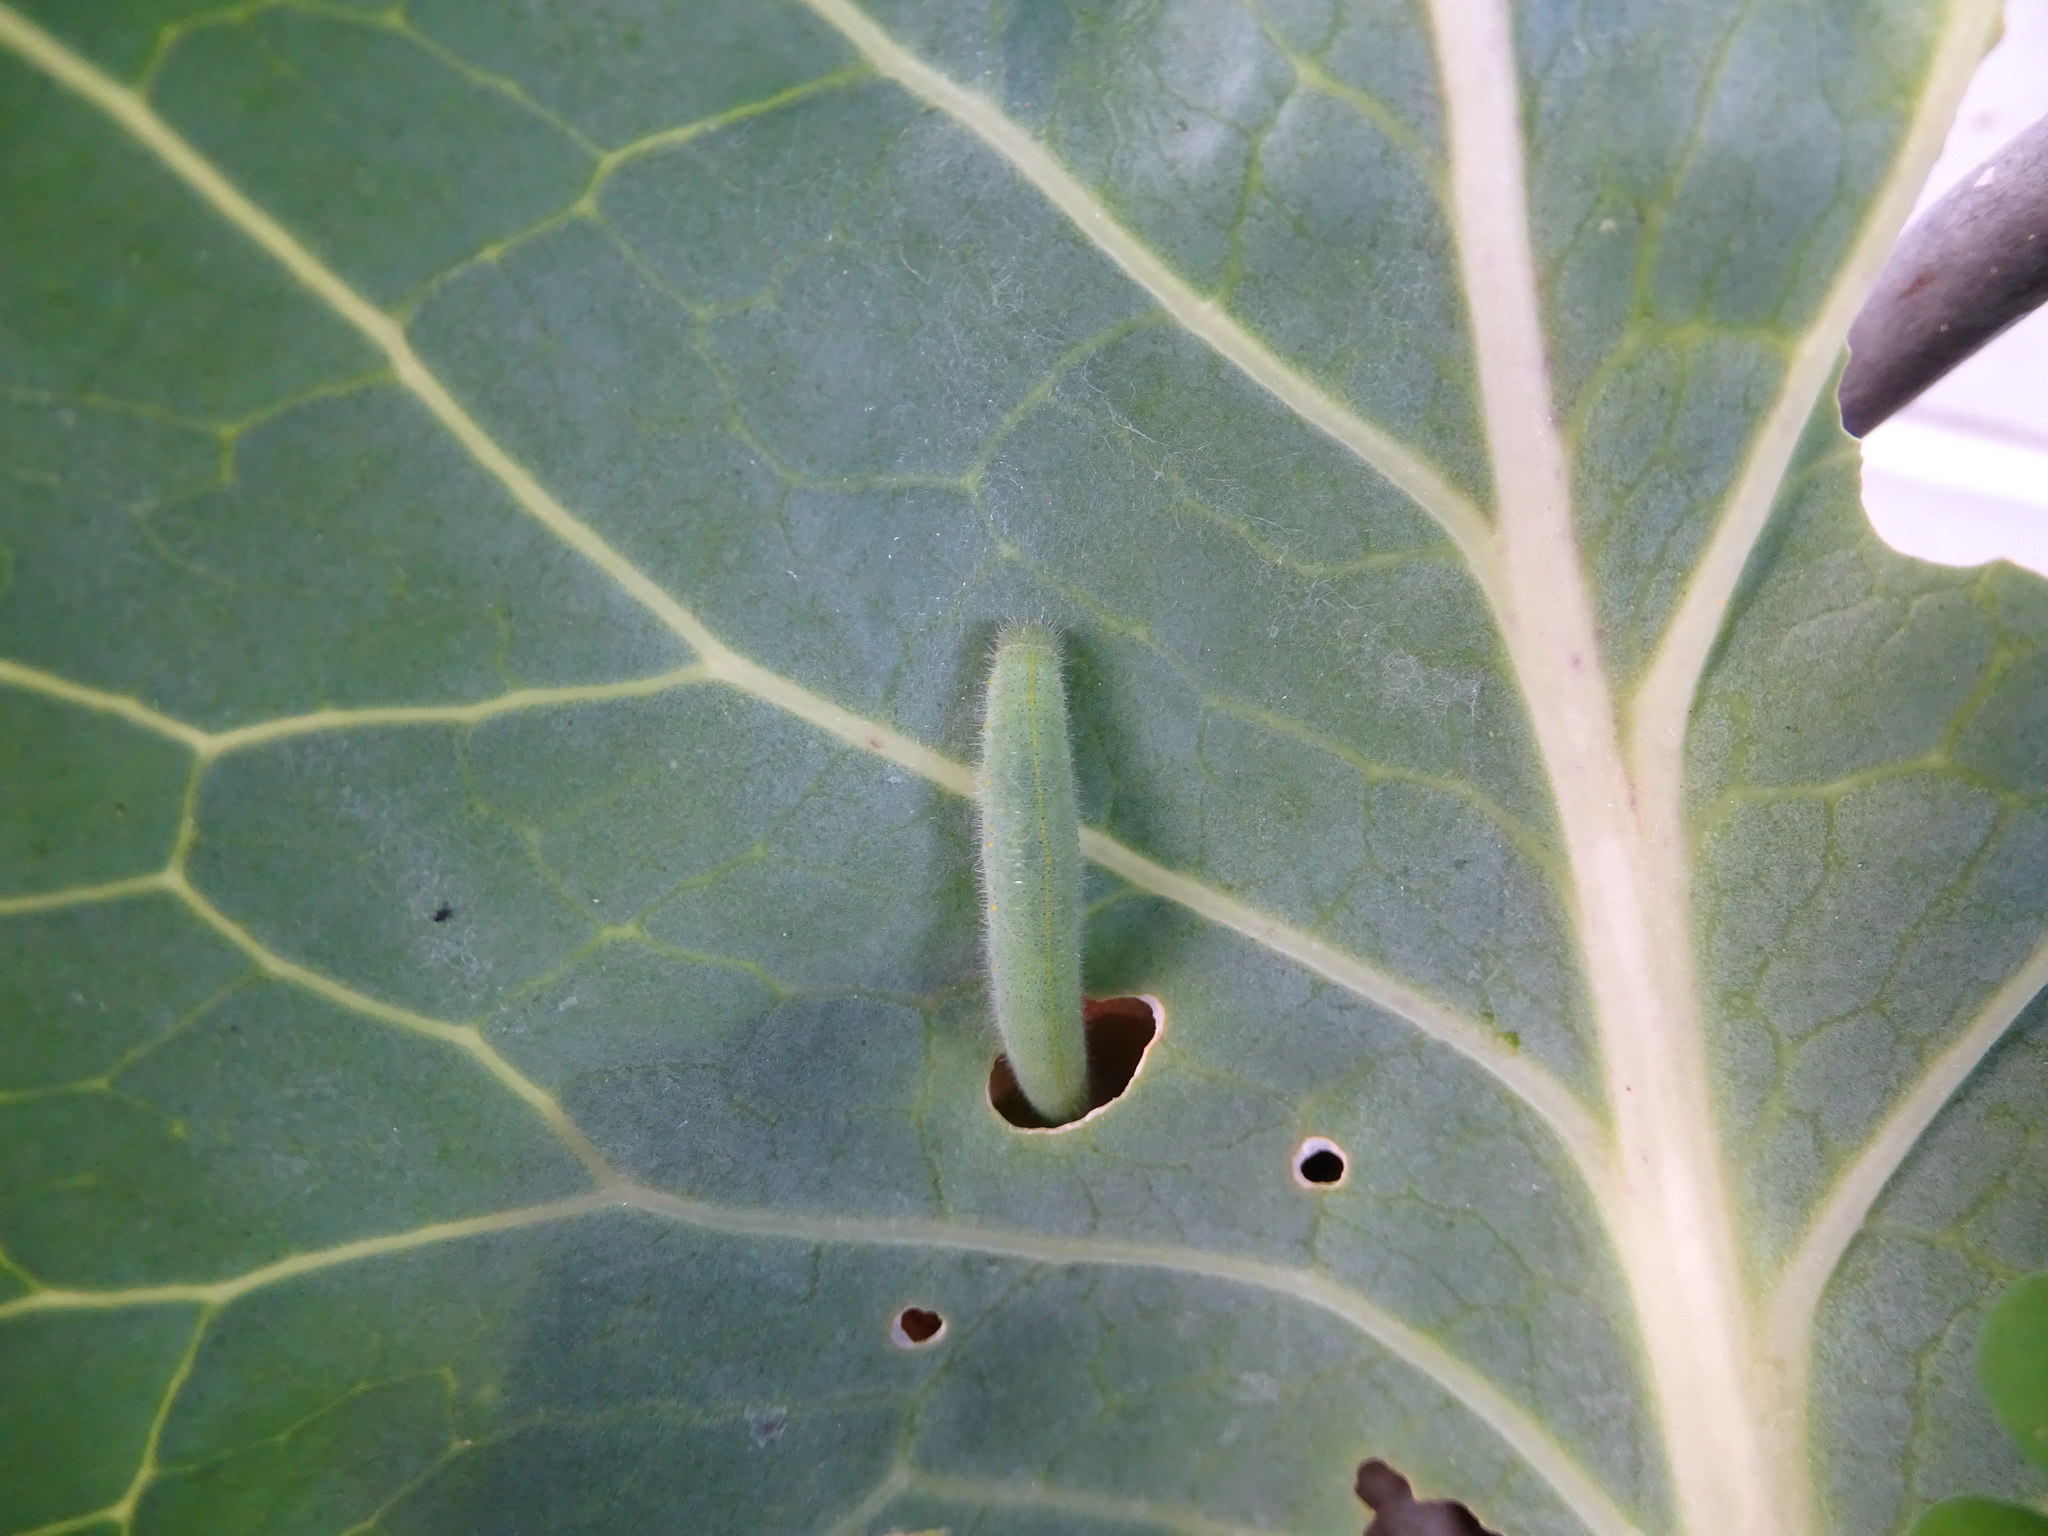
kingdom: Animalia
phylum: Arthropoda
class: Insecta
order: Lepidoptera
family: Pieridae
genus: Pieris
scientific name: Pieris rapae
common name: Small white
